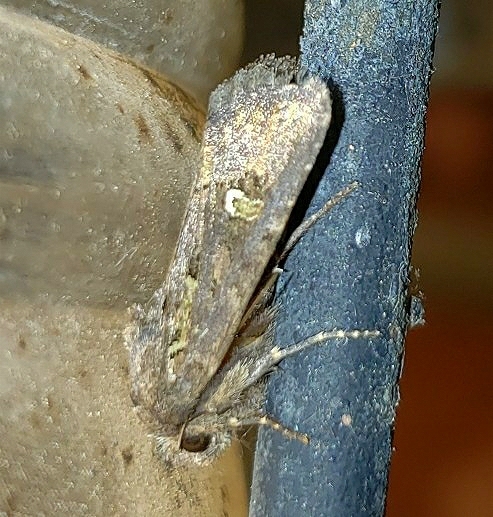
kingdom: Animalia
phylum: Arthropoda
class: Insecta
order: Lepidoptera
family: Noctuidae
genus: Lacinipolia
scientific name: Lacinipolia renigera
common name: Kidney-spotted minor
